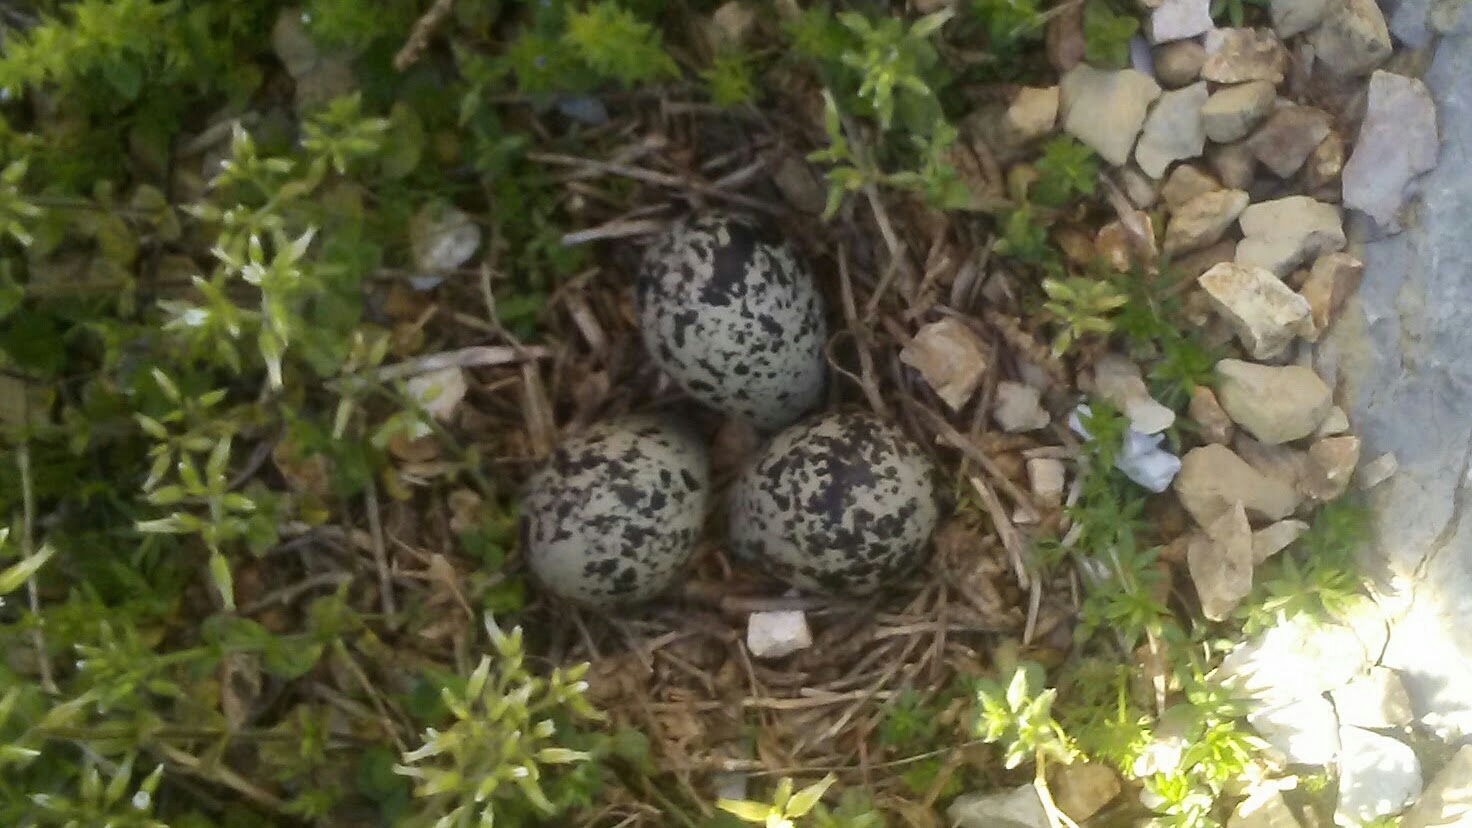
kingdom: Animalia
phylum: Chordata
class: Aves
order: Charadriiformes
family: Charadriidae
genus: Charadrius
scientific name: Charadrius vociferus
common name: Killdeer
